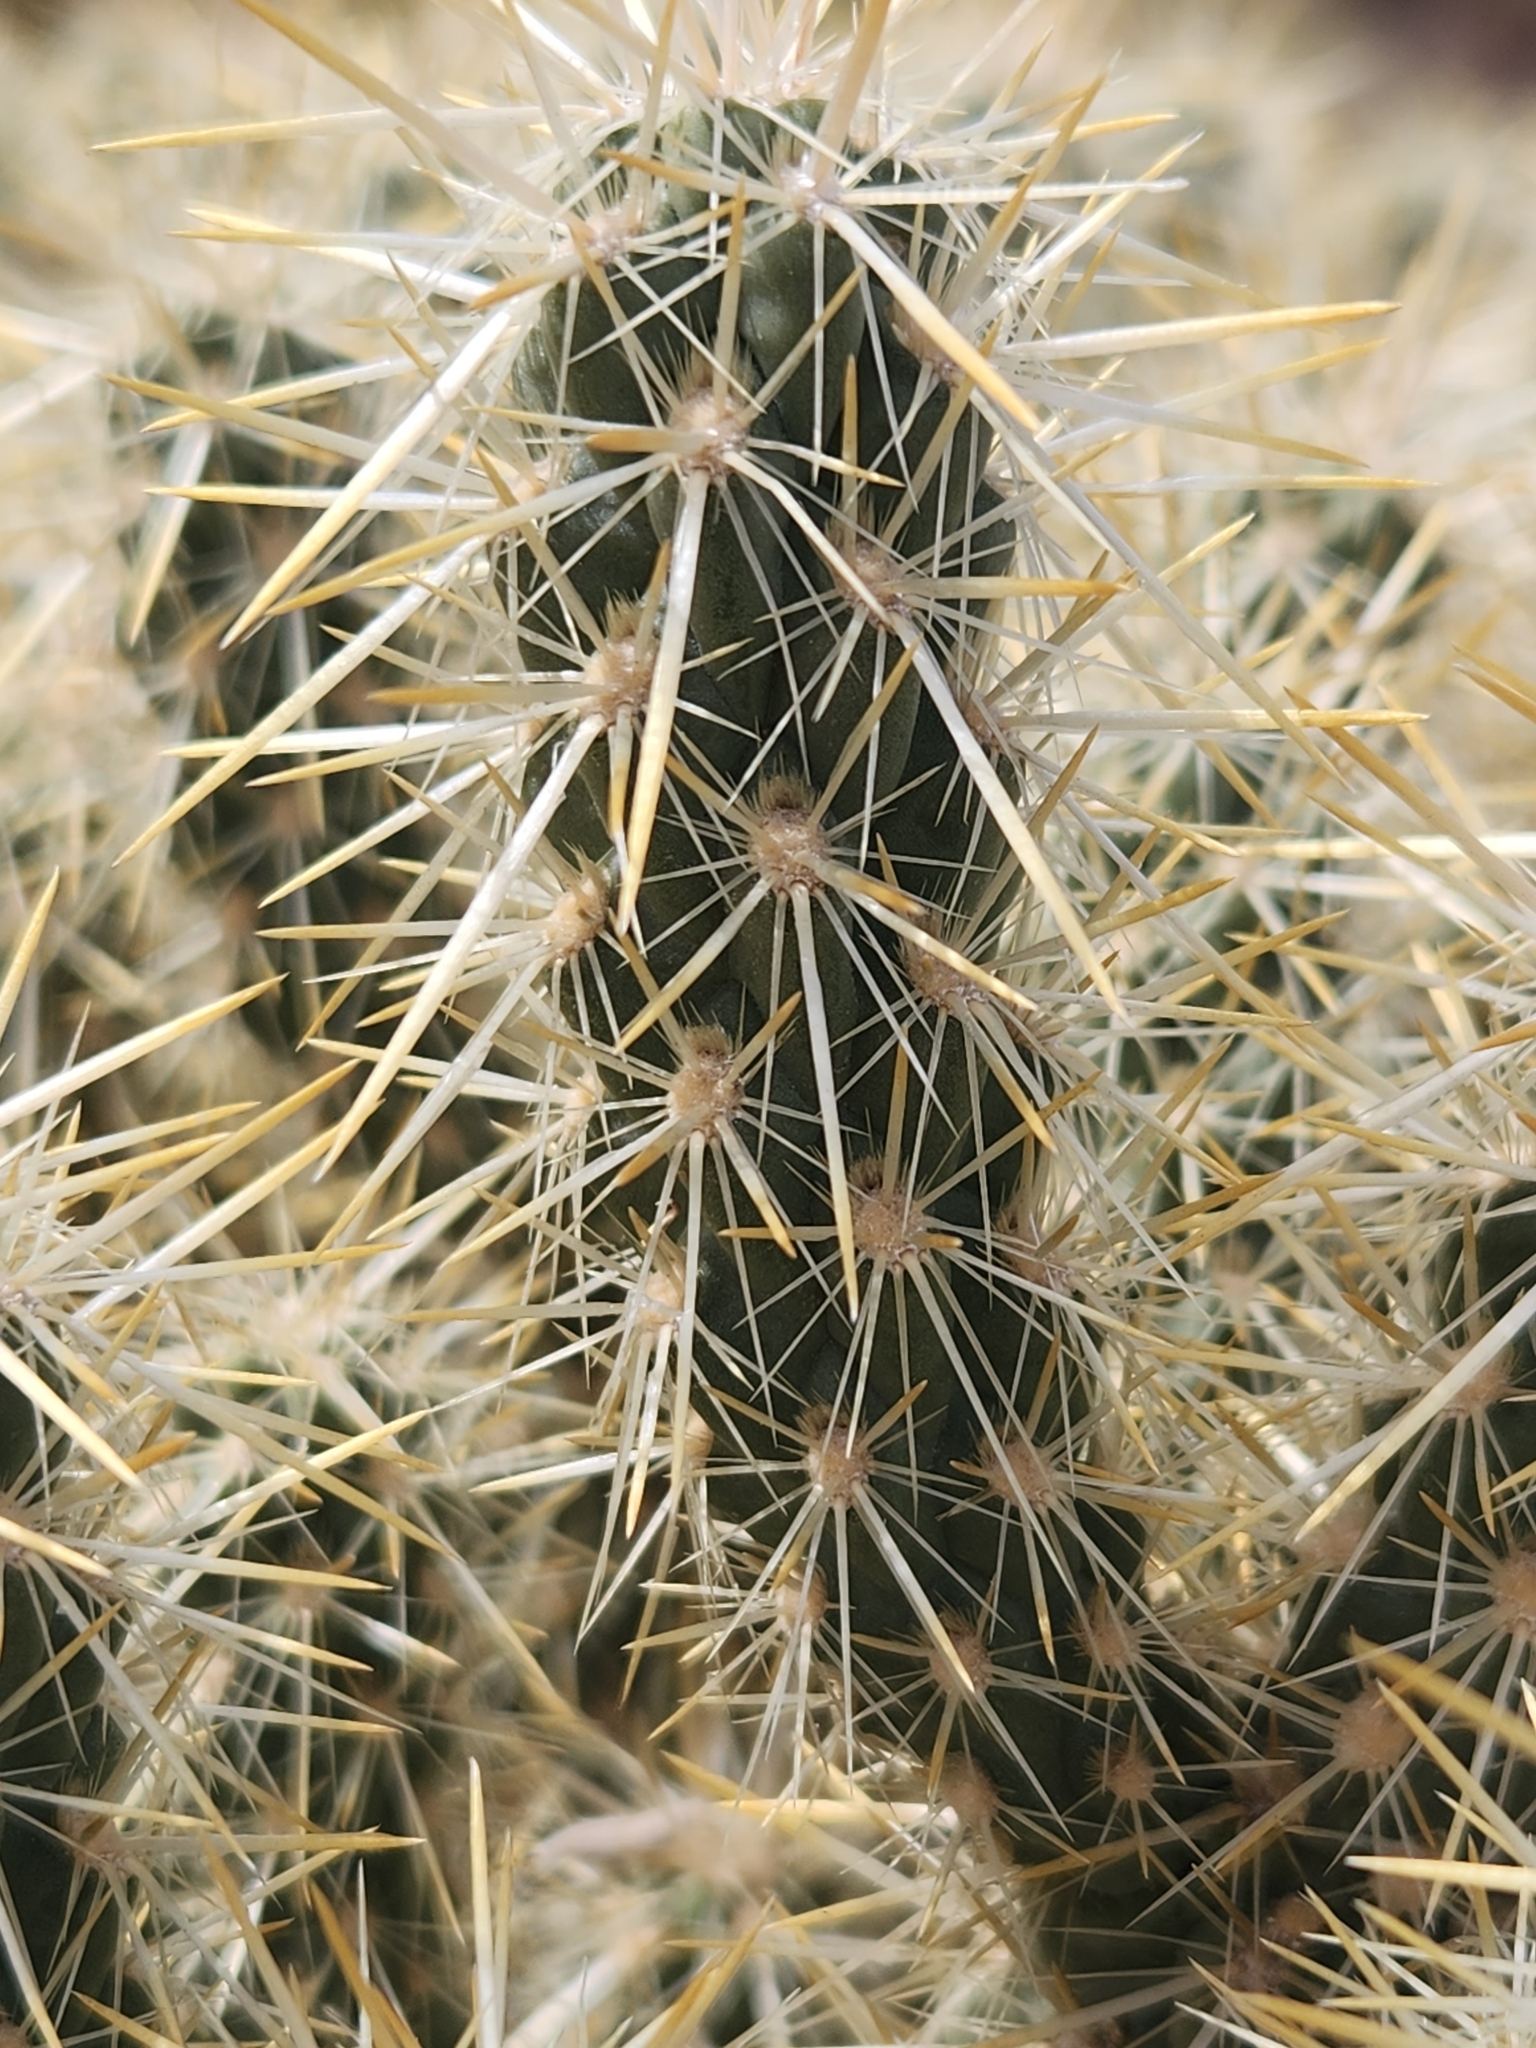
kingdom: Plantae
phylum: Tracheophyta
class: Magnoliopsida
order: Caryophyllales
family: Cactaceae
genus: Cylindropuntia
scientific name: Cylindropuntia echinocarpa
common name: Ground cholla
